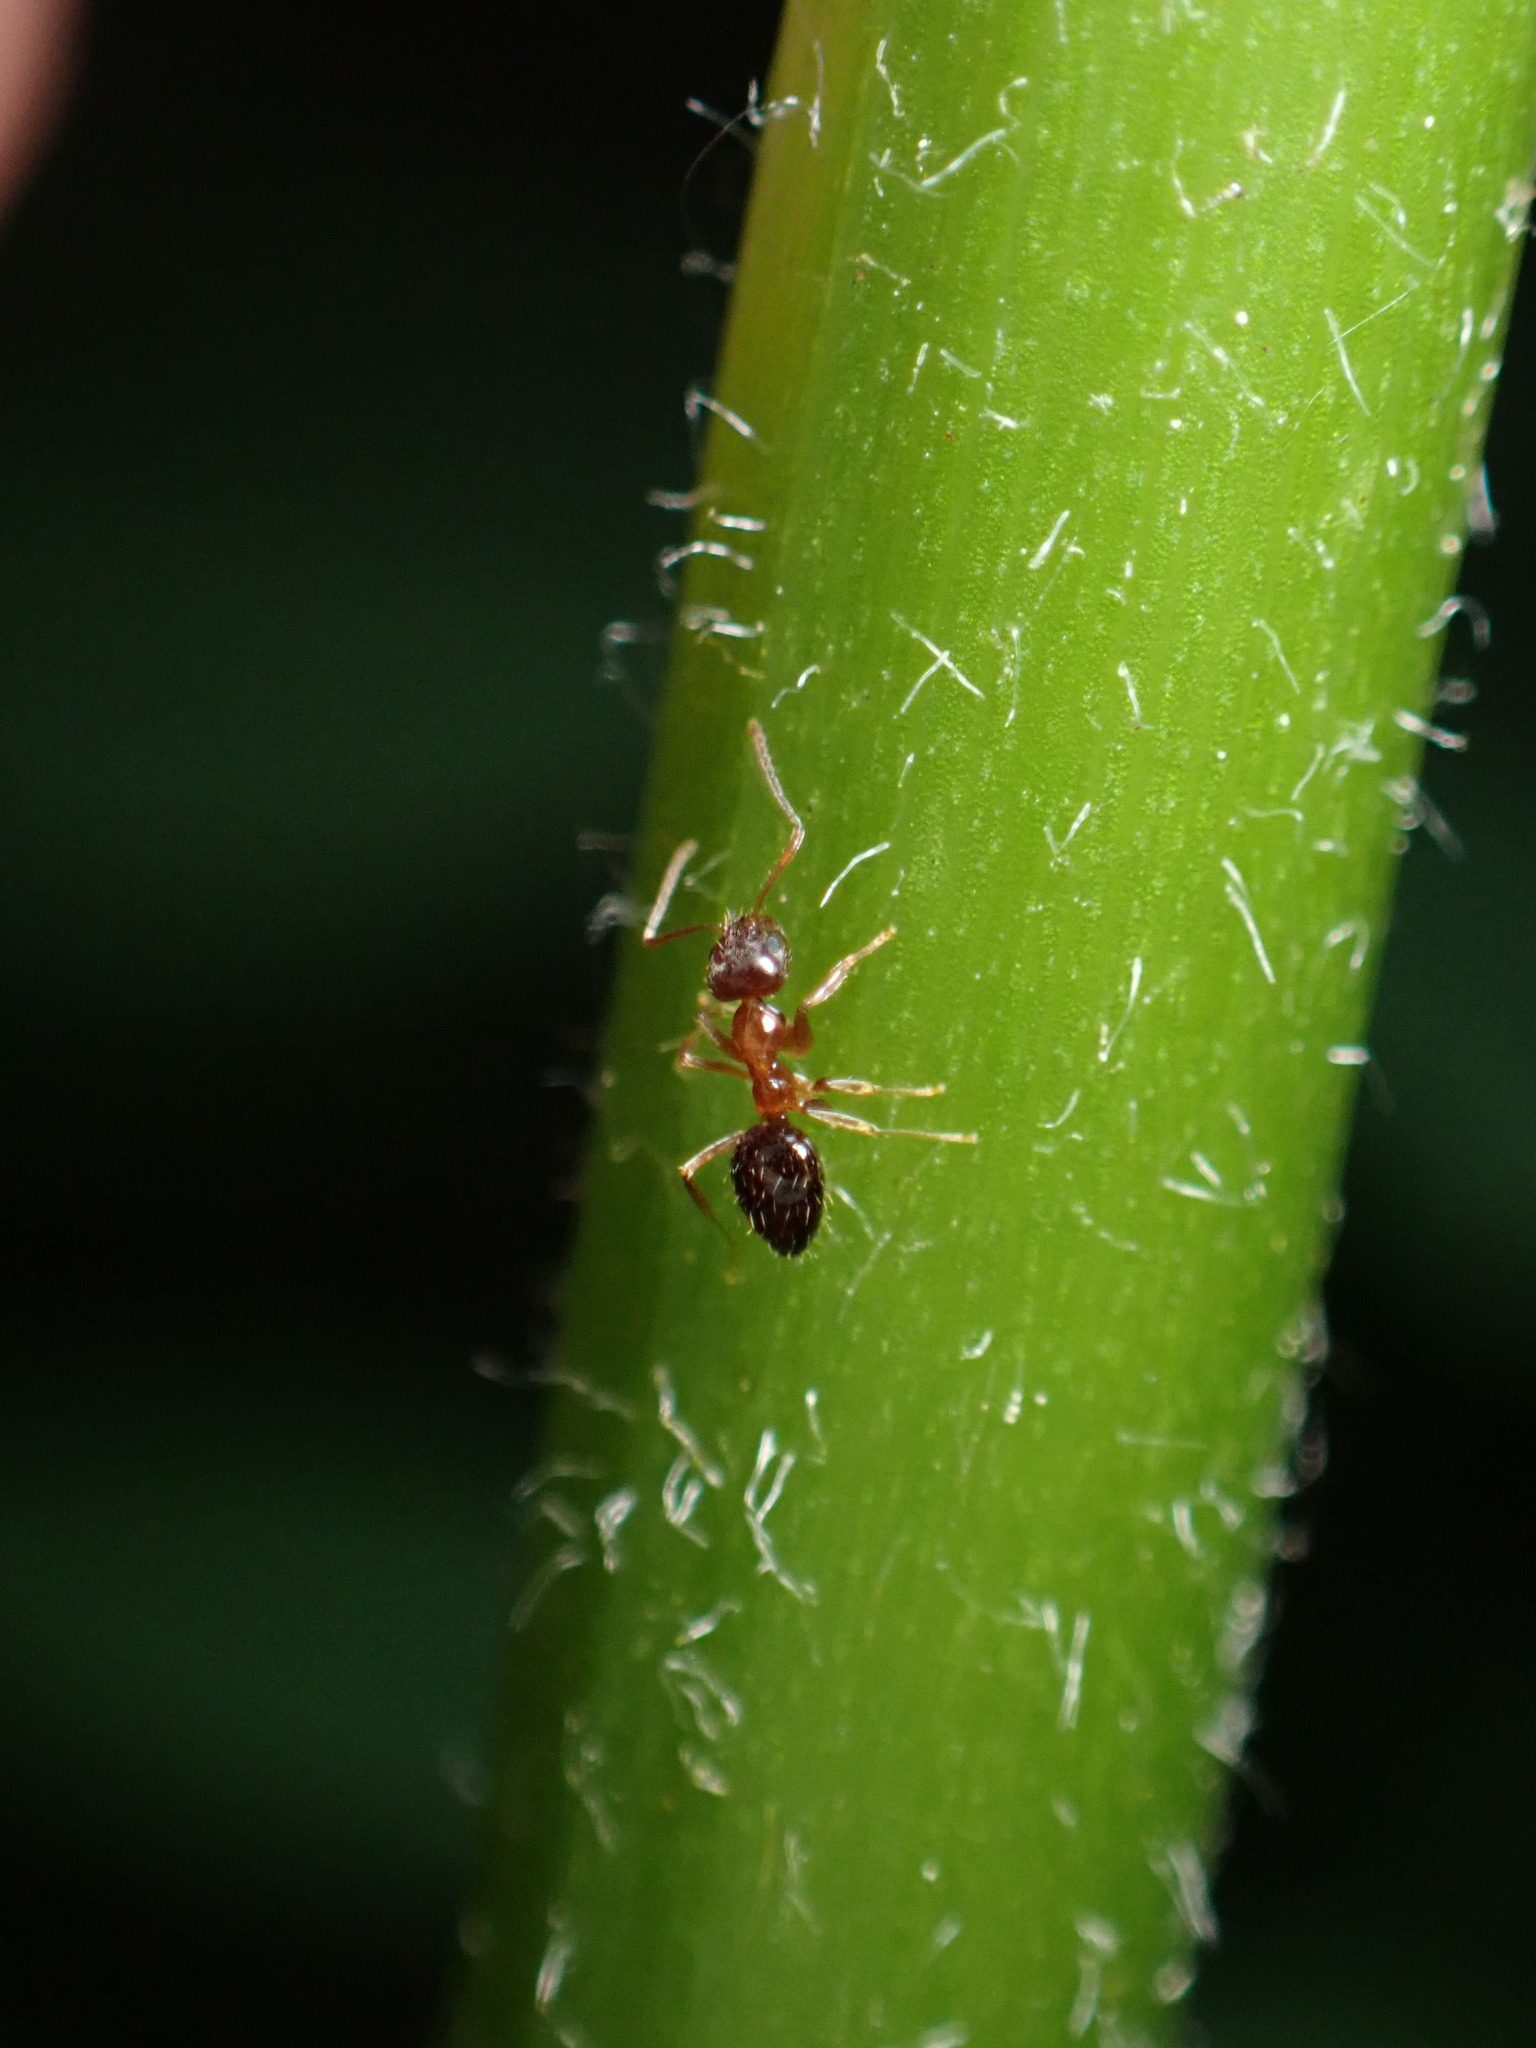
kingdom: Animalia
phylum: Arthropoda
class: Insecta
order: Hymenoptera
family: Formicidae
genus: Paratrechina
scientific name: Paratrechina flavipes
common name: Eastern asian formicine ant
